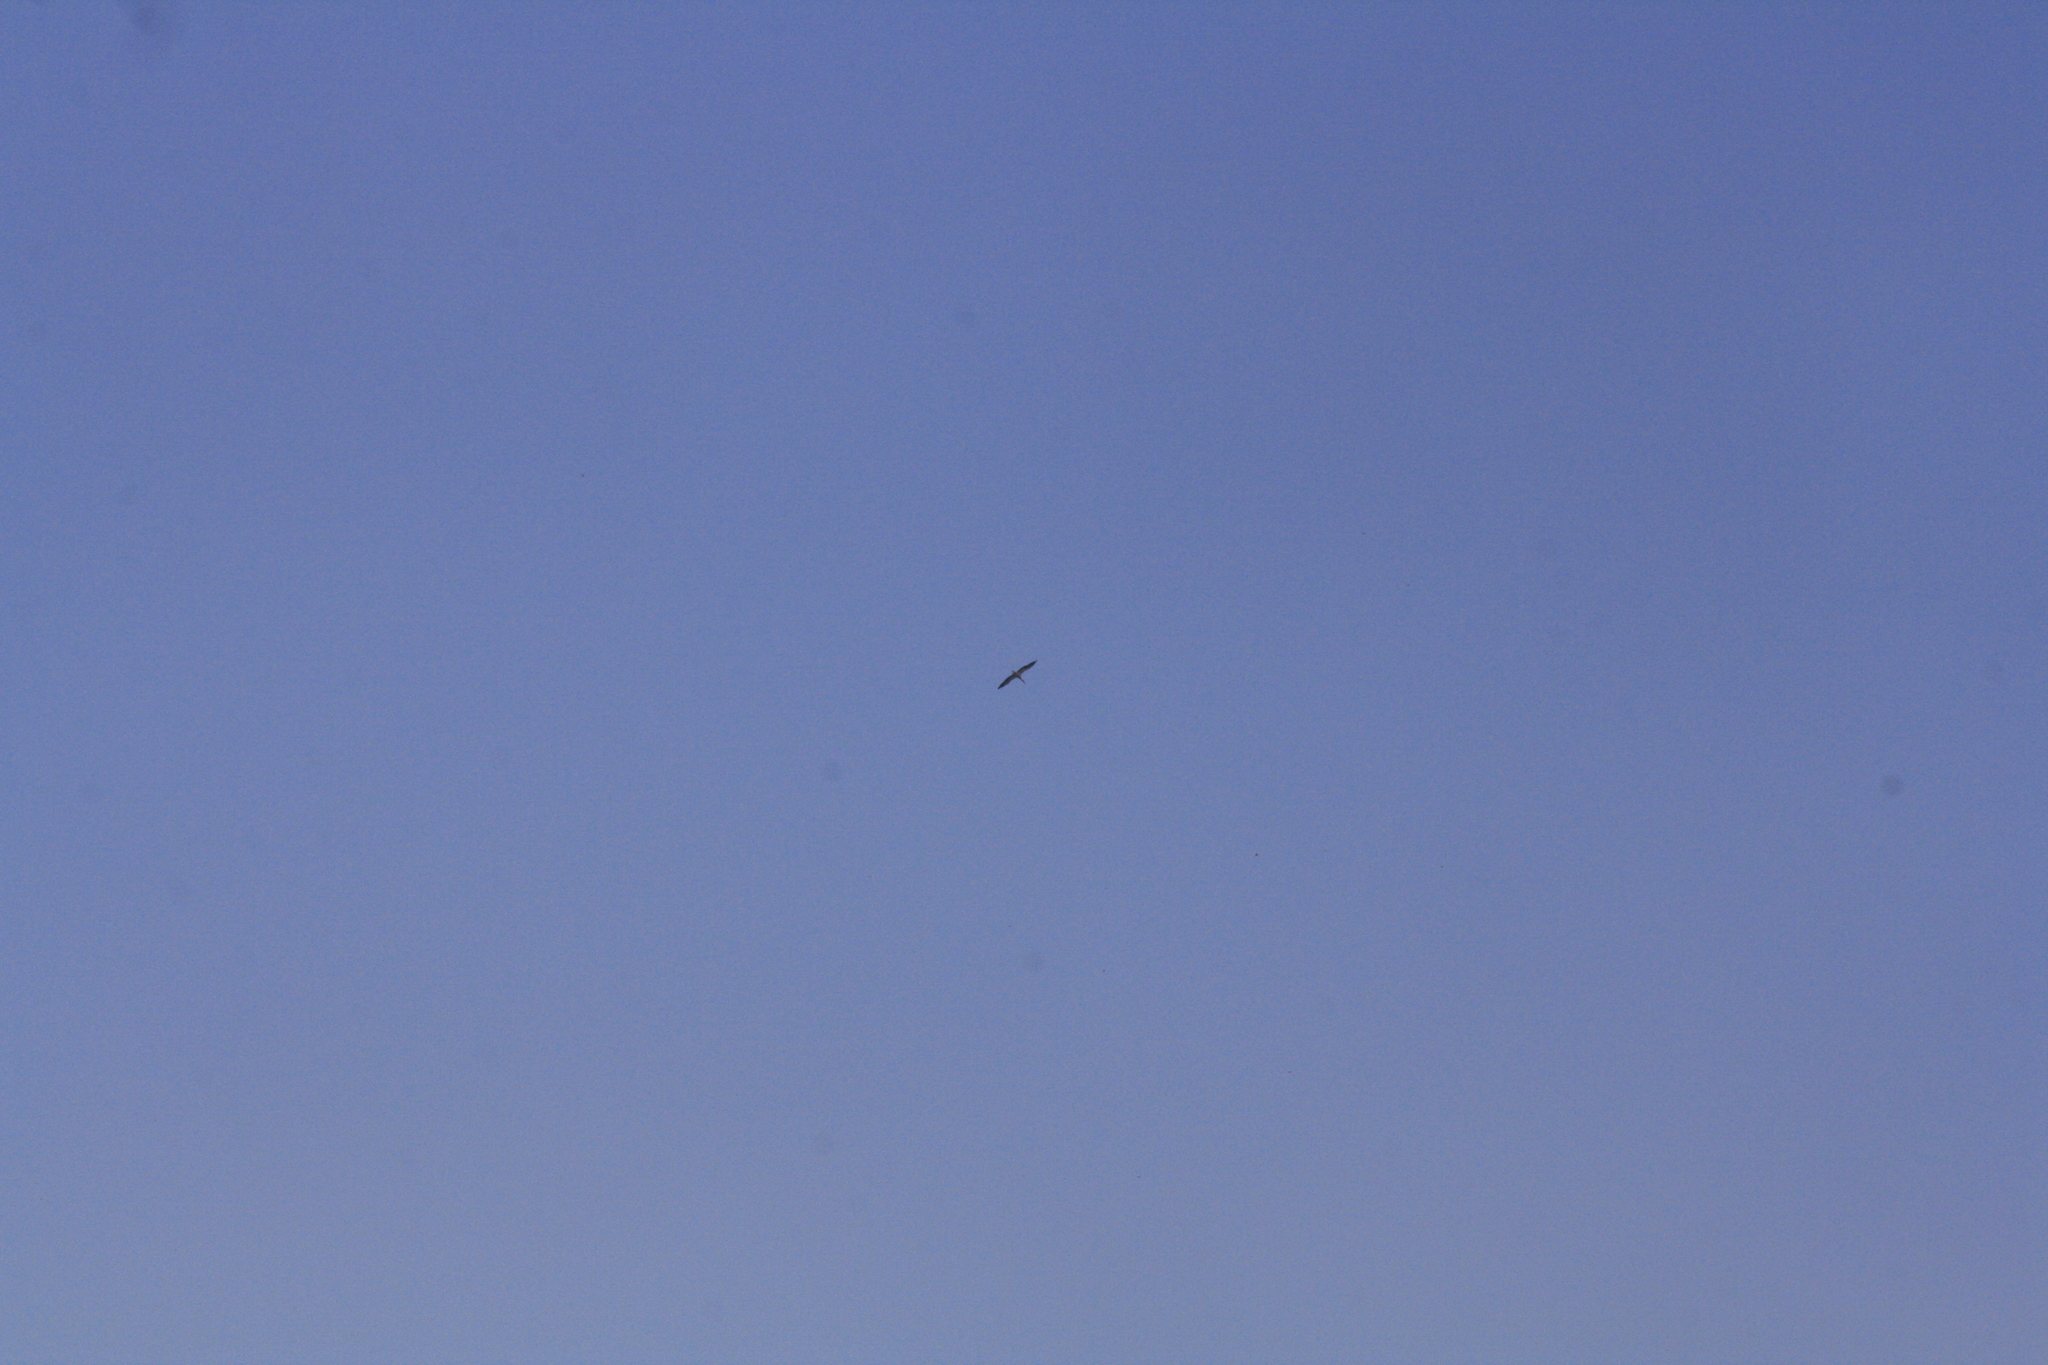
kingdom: Animalia
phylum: Chordata
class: Aves
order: Ciconiiformes
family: Ciconiidae
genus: Ciconia
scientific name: Ciconia ciconia
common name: White stork
